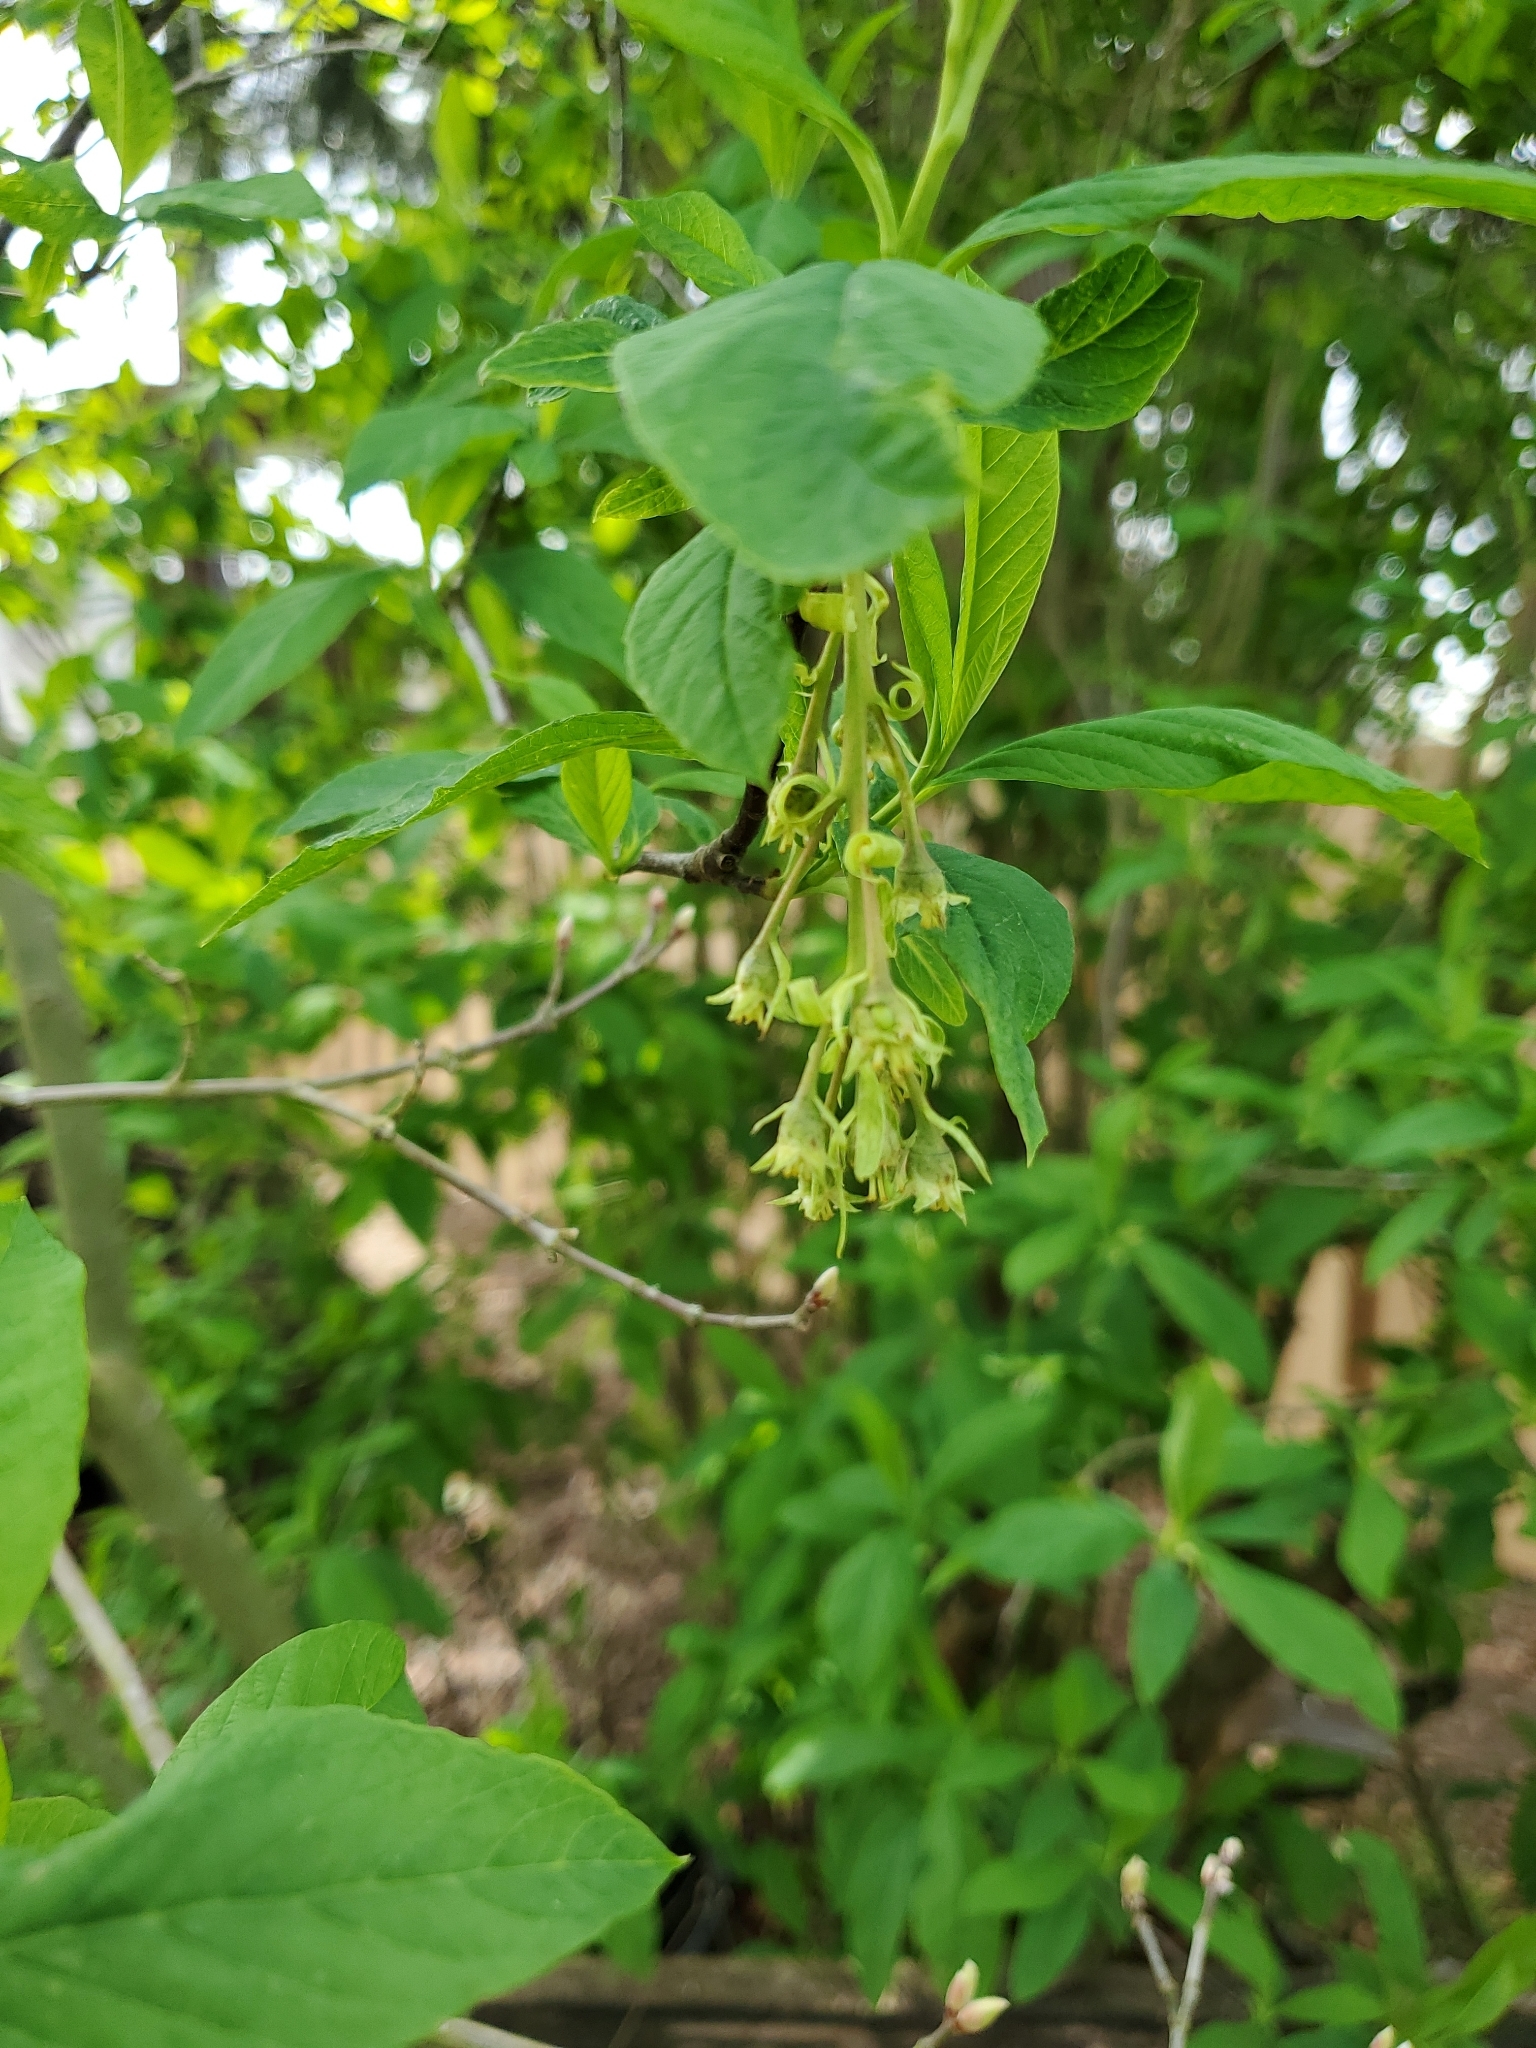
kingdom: Plantae
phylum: Tracheophyta
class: Magnoliopsida
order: Rosales
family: Rosaceae
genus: Oemleria
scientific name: Oemleria cerasiformis
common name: Osoberry
